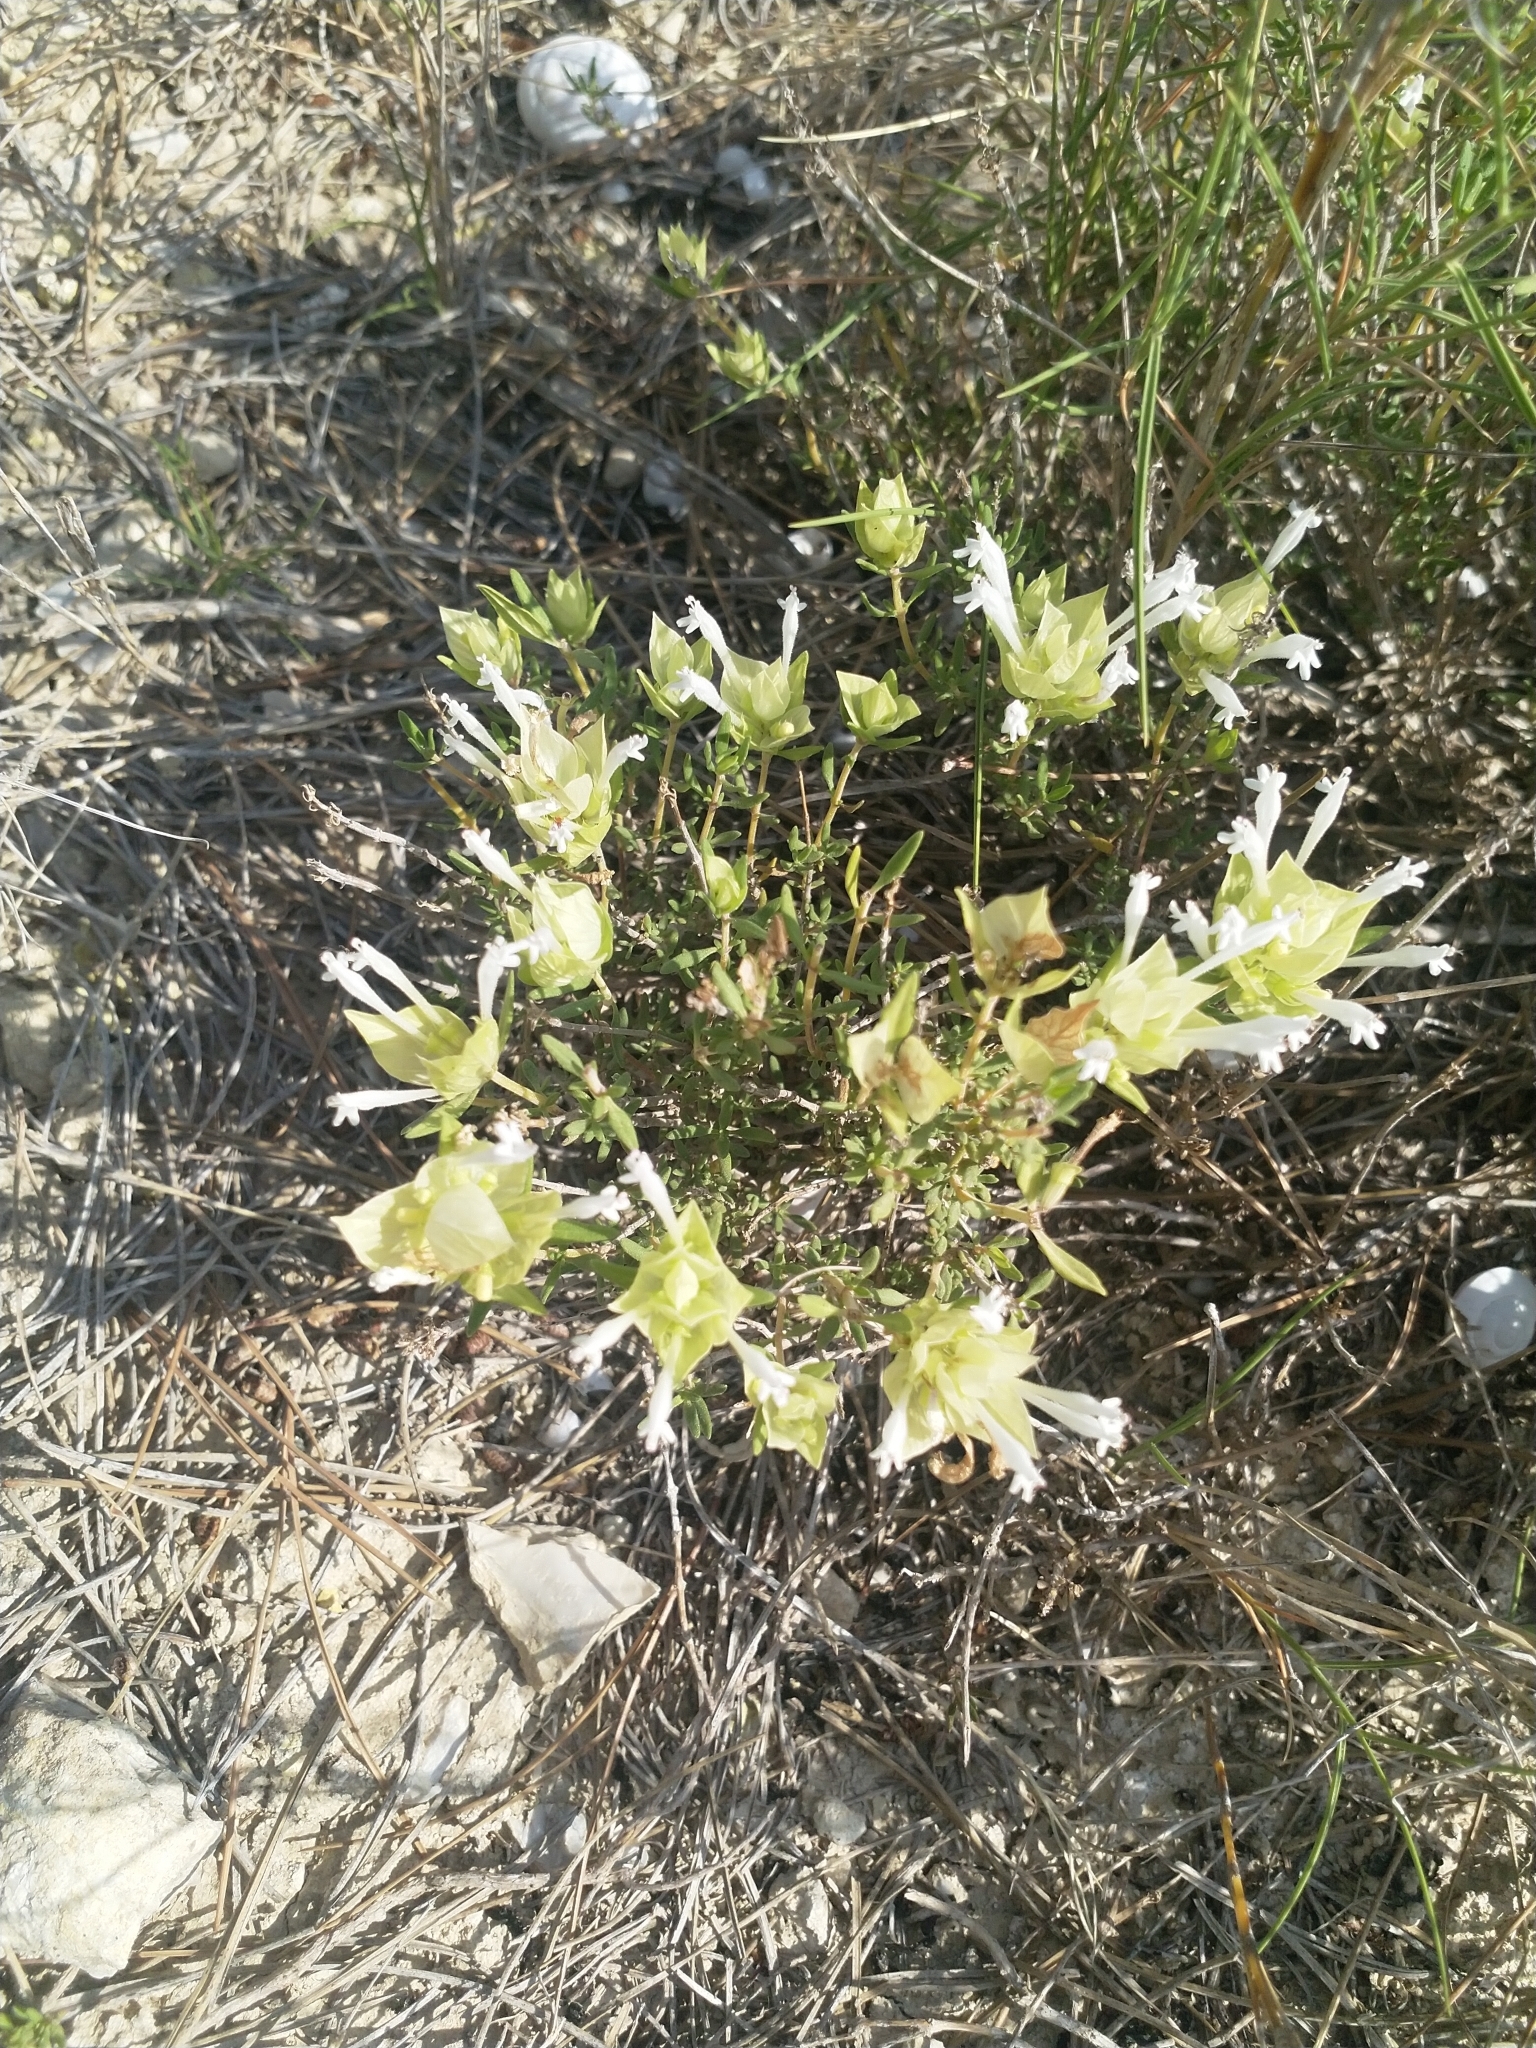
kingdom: Plantae
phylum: Tracheophyta
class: Magnoliopsida
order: Lamiales
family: Lamiaceae
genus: Thymus
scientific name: Thymus membranaceus
